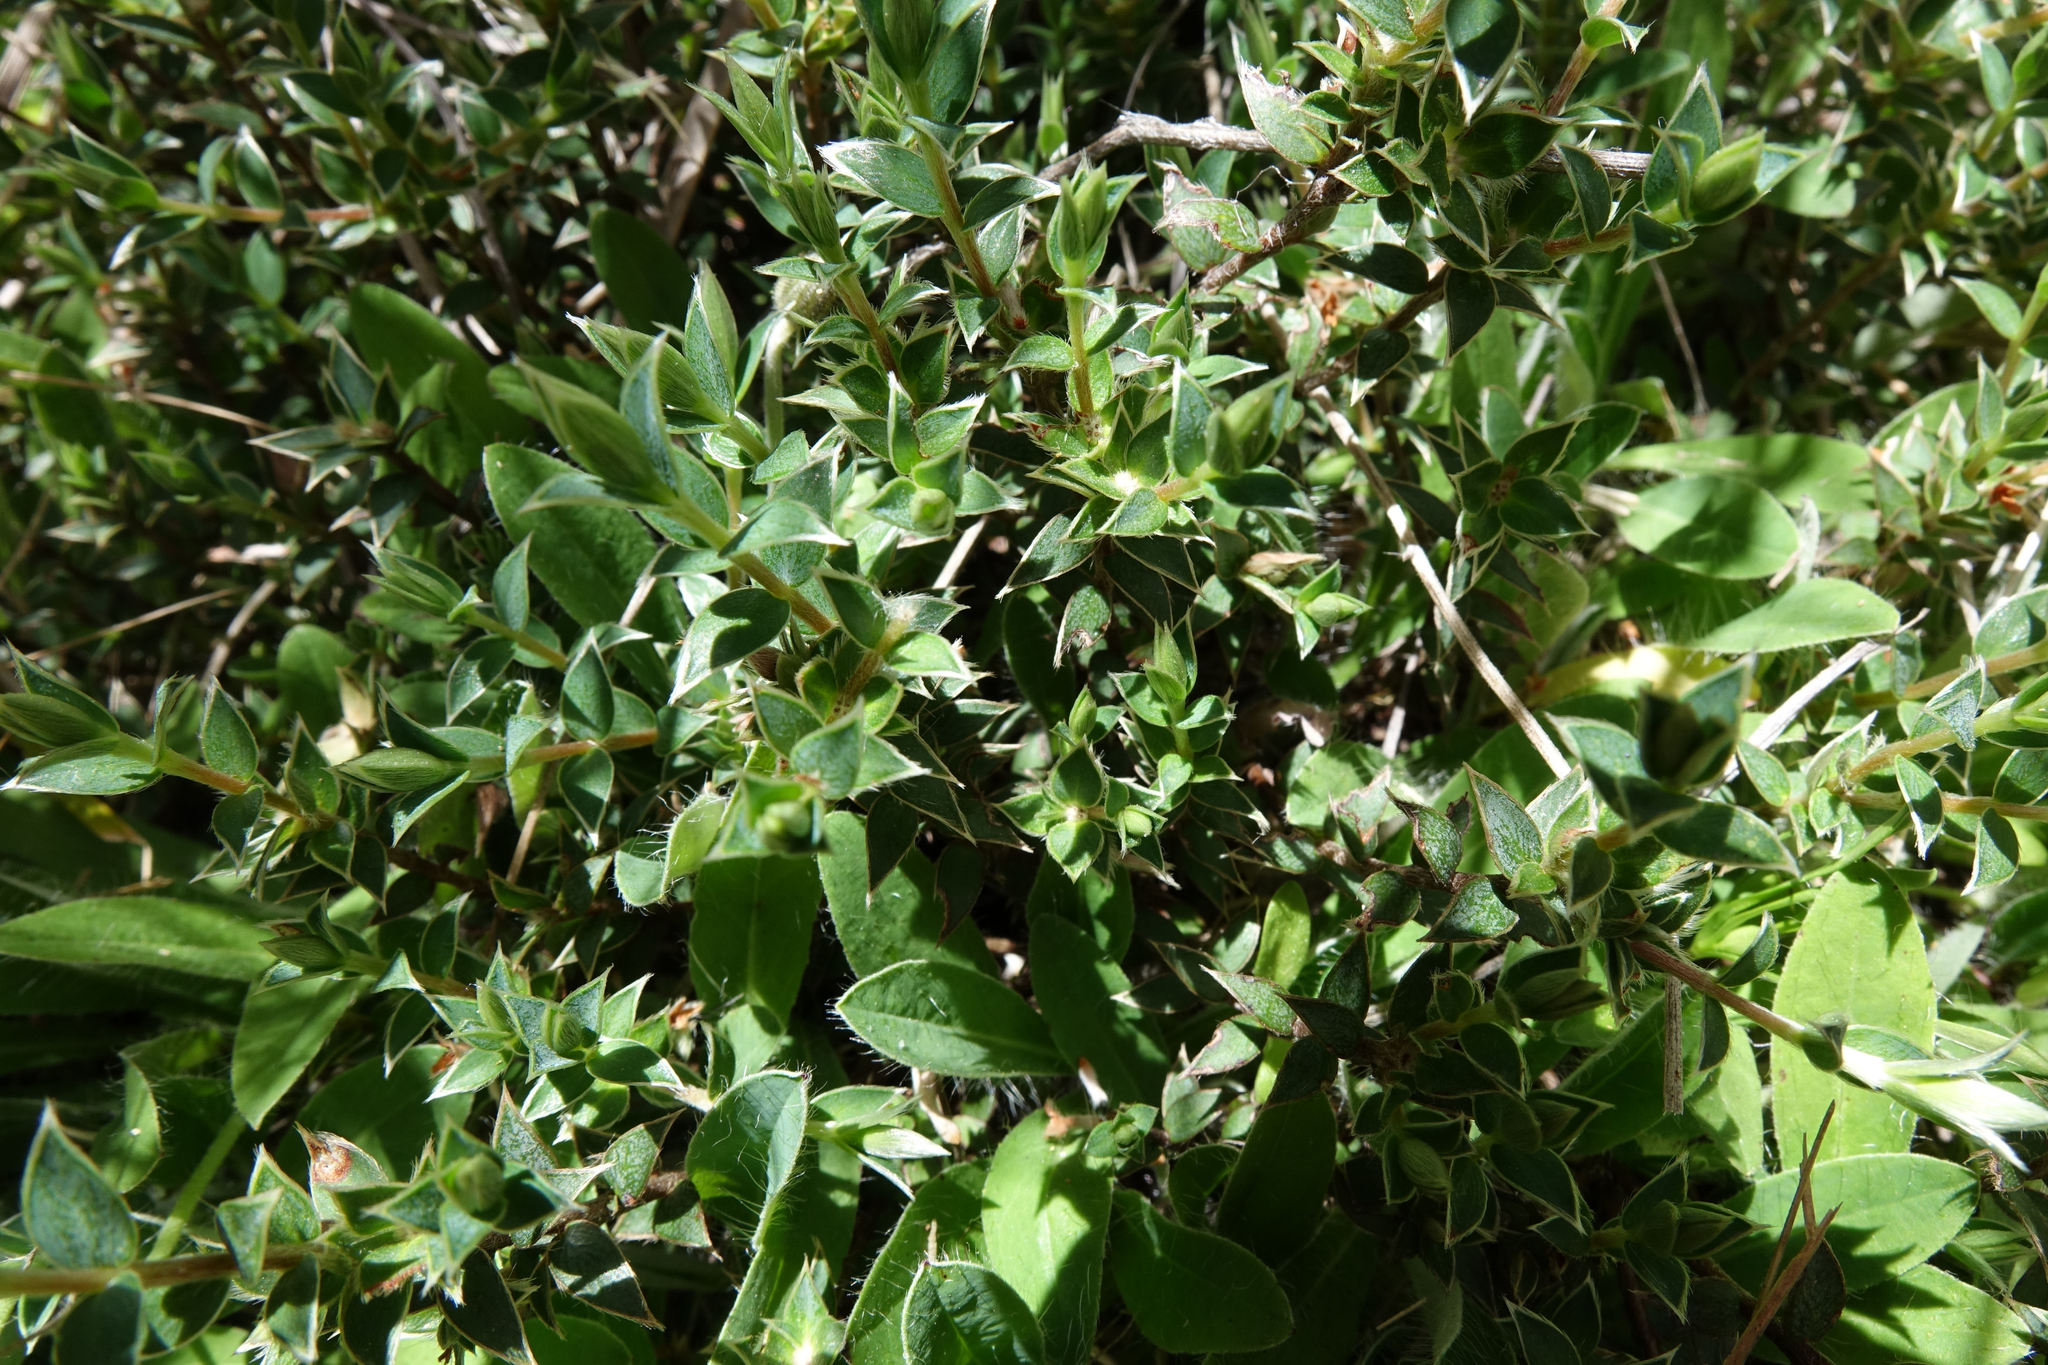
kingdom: Plantae
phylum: Tracheophyta
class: Magnoliopsida
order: Malvales
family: Thymelaeaceae
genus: Pimelea
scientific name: Pimelea pseudolyallii
